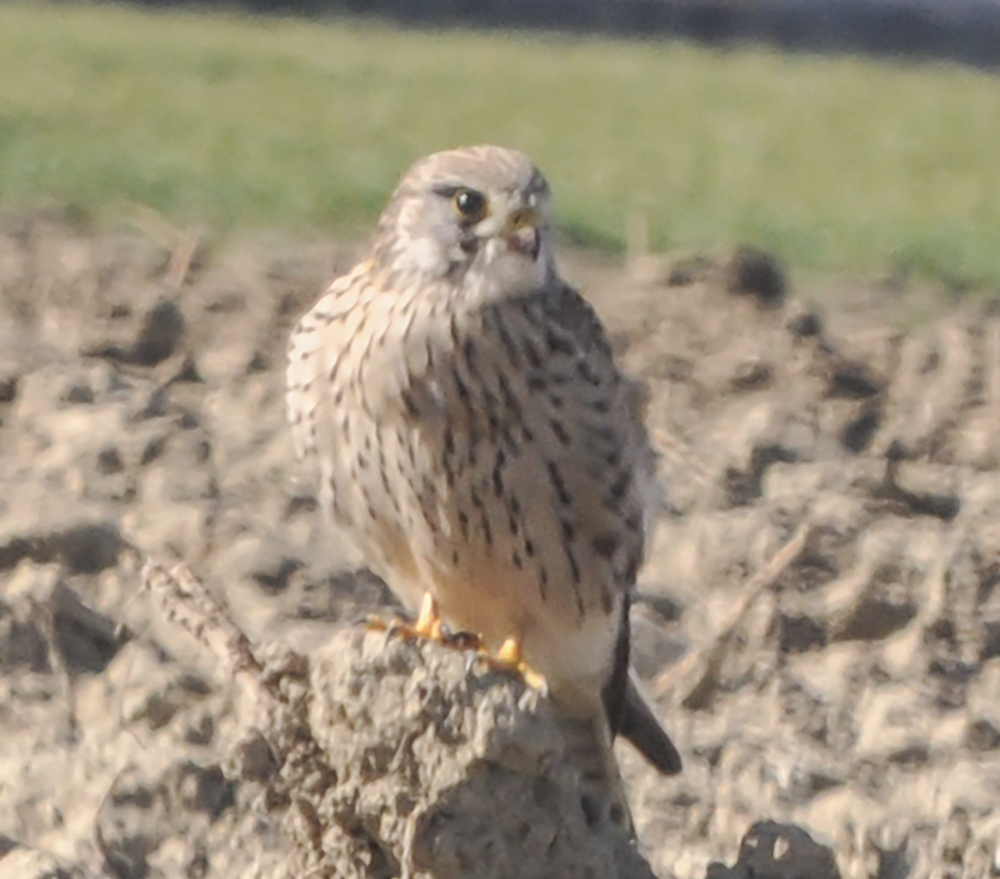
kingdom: Animalia
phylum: Chordata
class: Aves
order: Falconiformes
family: Falconidae
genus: Falco
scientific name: Falco tinnunculus
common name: Common kestrel
